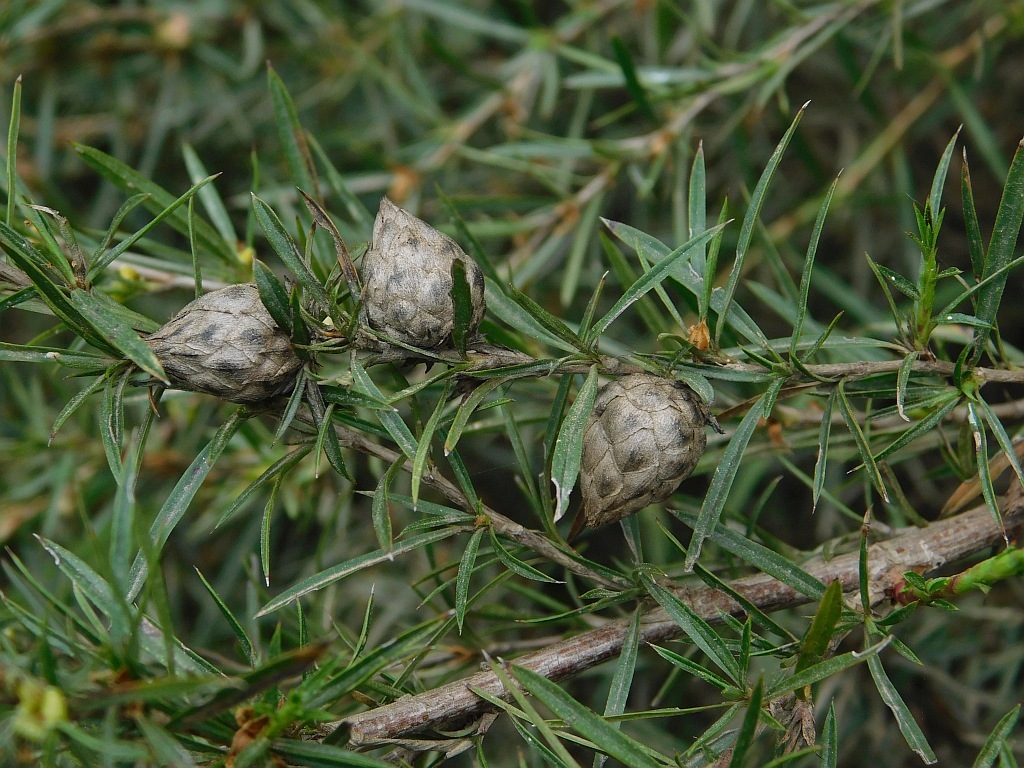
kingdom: Plantae
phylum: Tracheophyta
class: Magnoliopsida
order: Rosales
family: Rosaceae
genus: Cliffortia
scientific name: Cliffortia strobilifera
